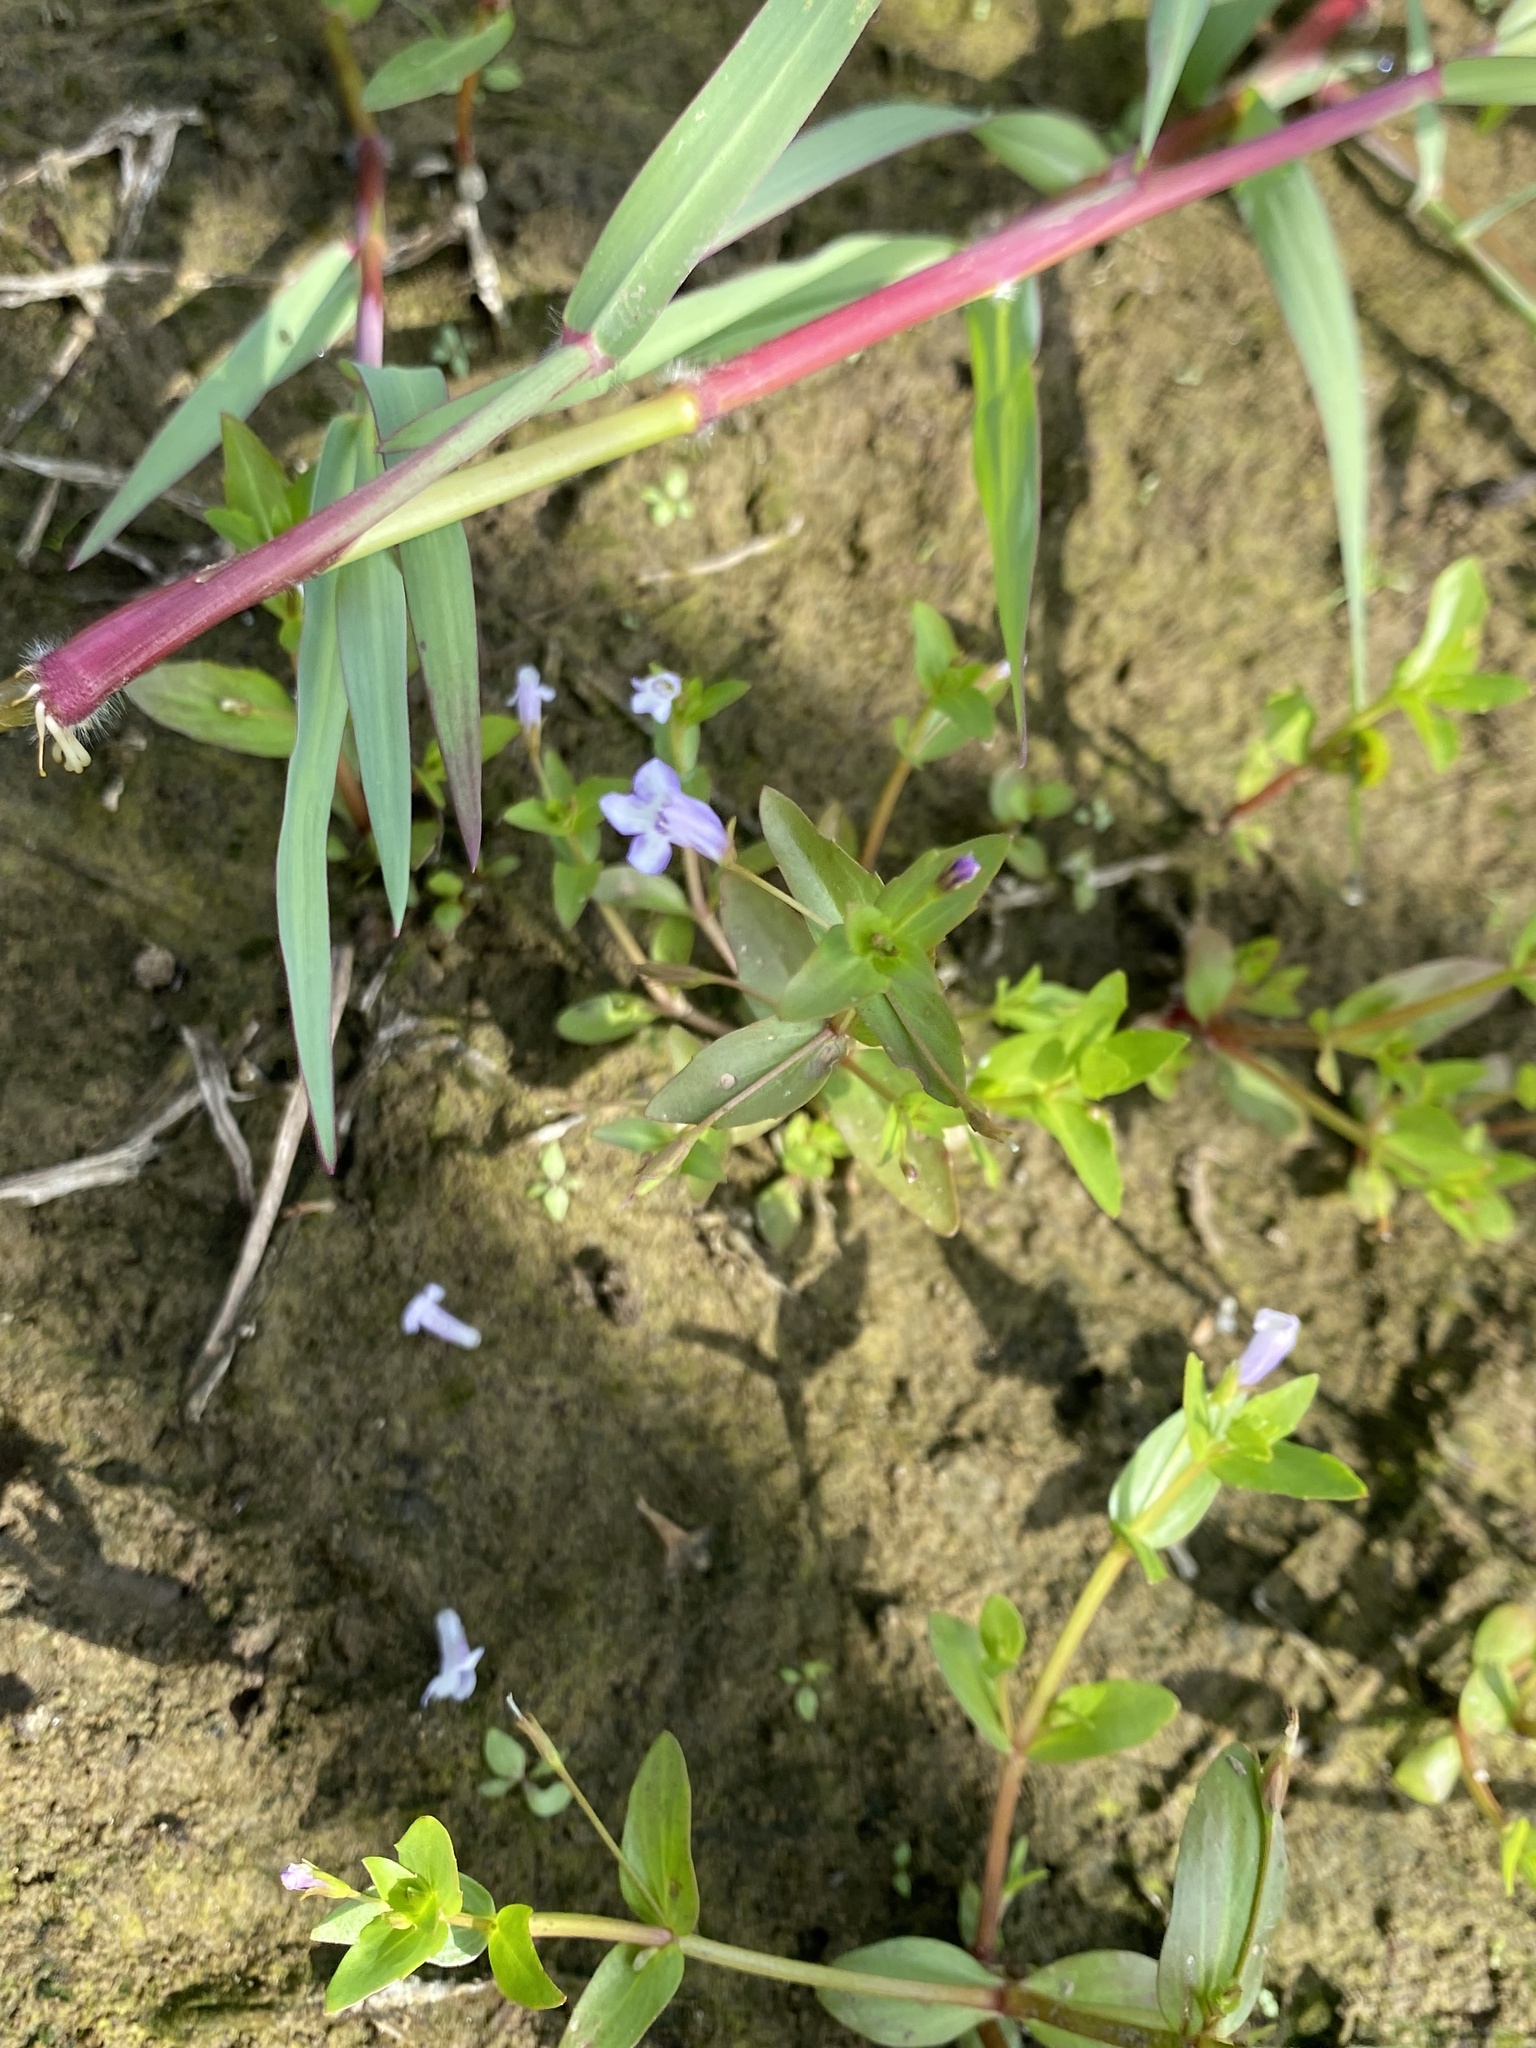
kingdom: Plantae
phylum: Tracheophyta
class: Magnoliopsida
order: Lamiales
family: Linderniaceae
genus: Lindernia
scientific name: Lindernia dubia
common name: Annual false pimpernel
